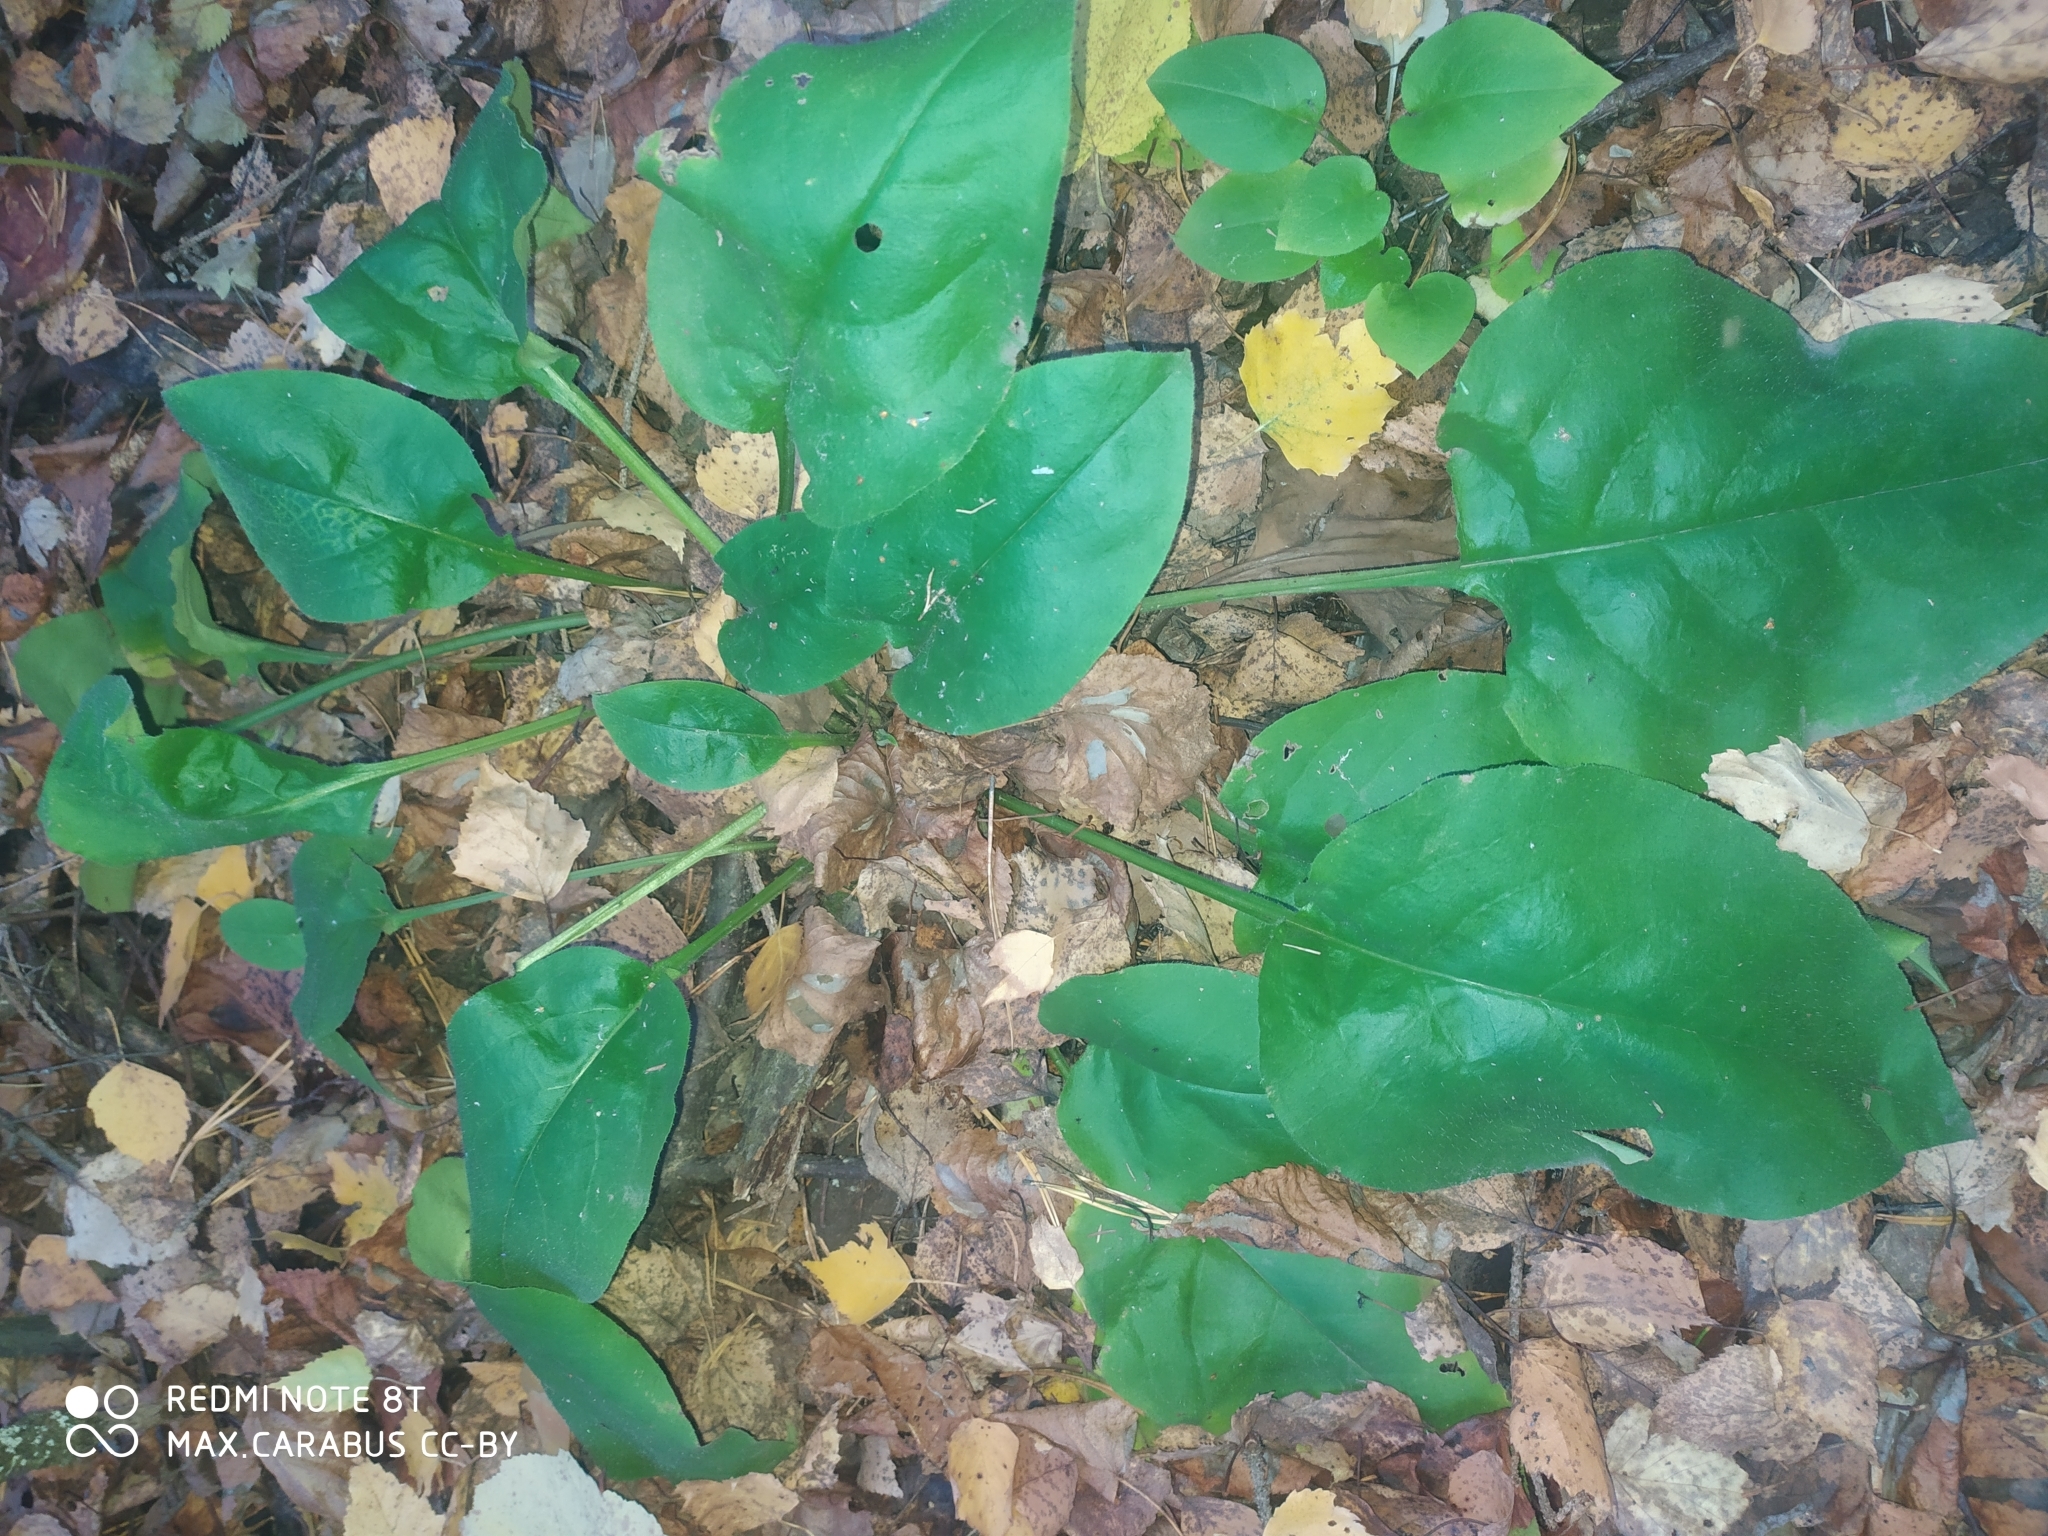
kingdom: Plantae
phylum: Tracheophyta
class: Magnoliopsida
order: Boraginales
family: Boraginaceae
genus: Pulmonaria
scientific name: Pulmonaria obscura
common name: Suffolk lungwort
